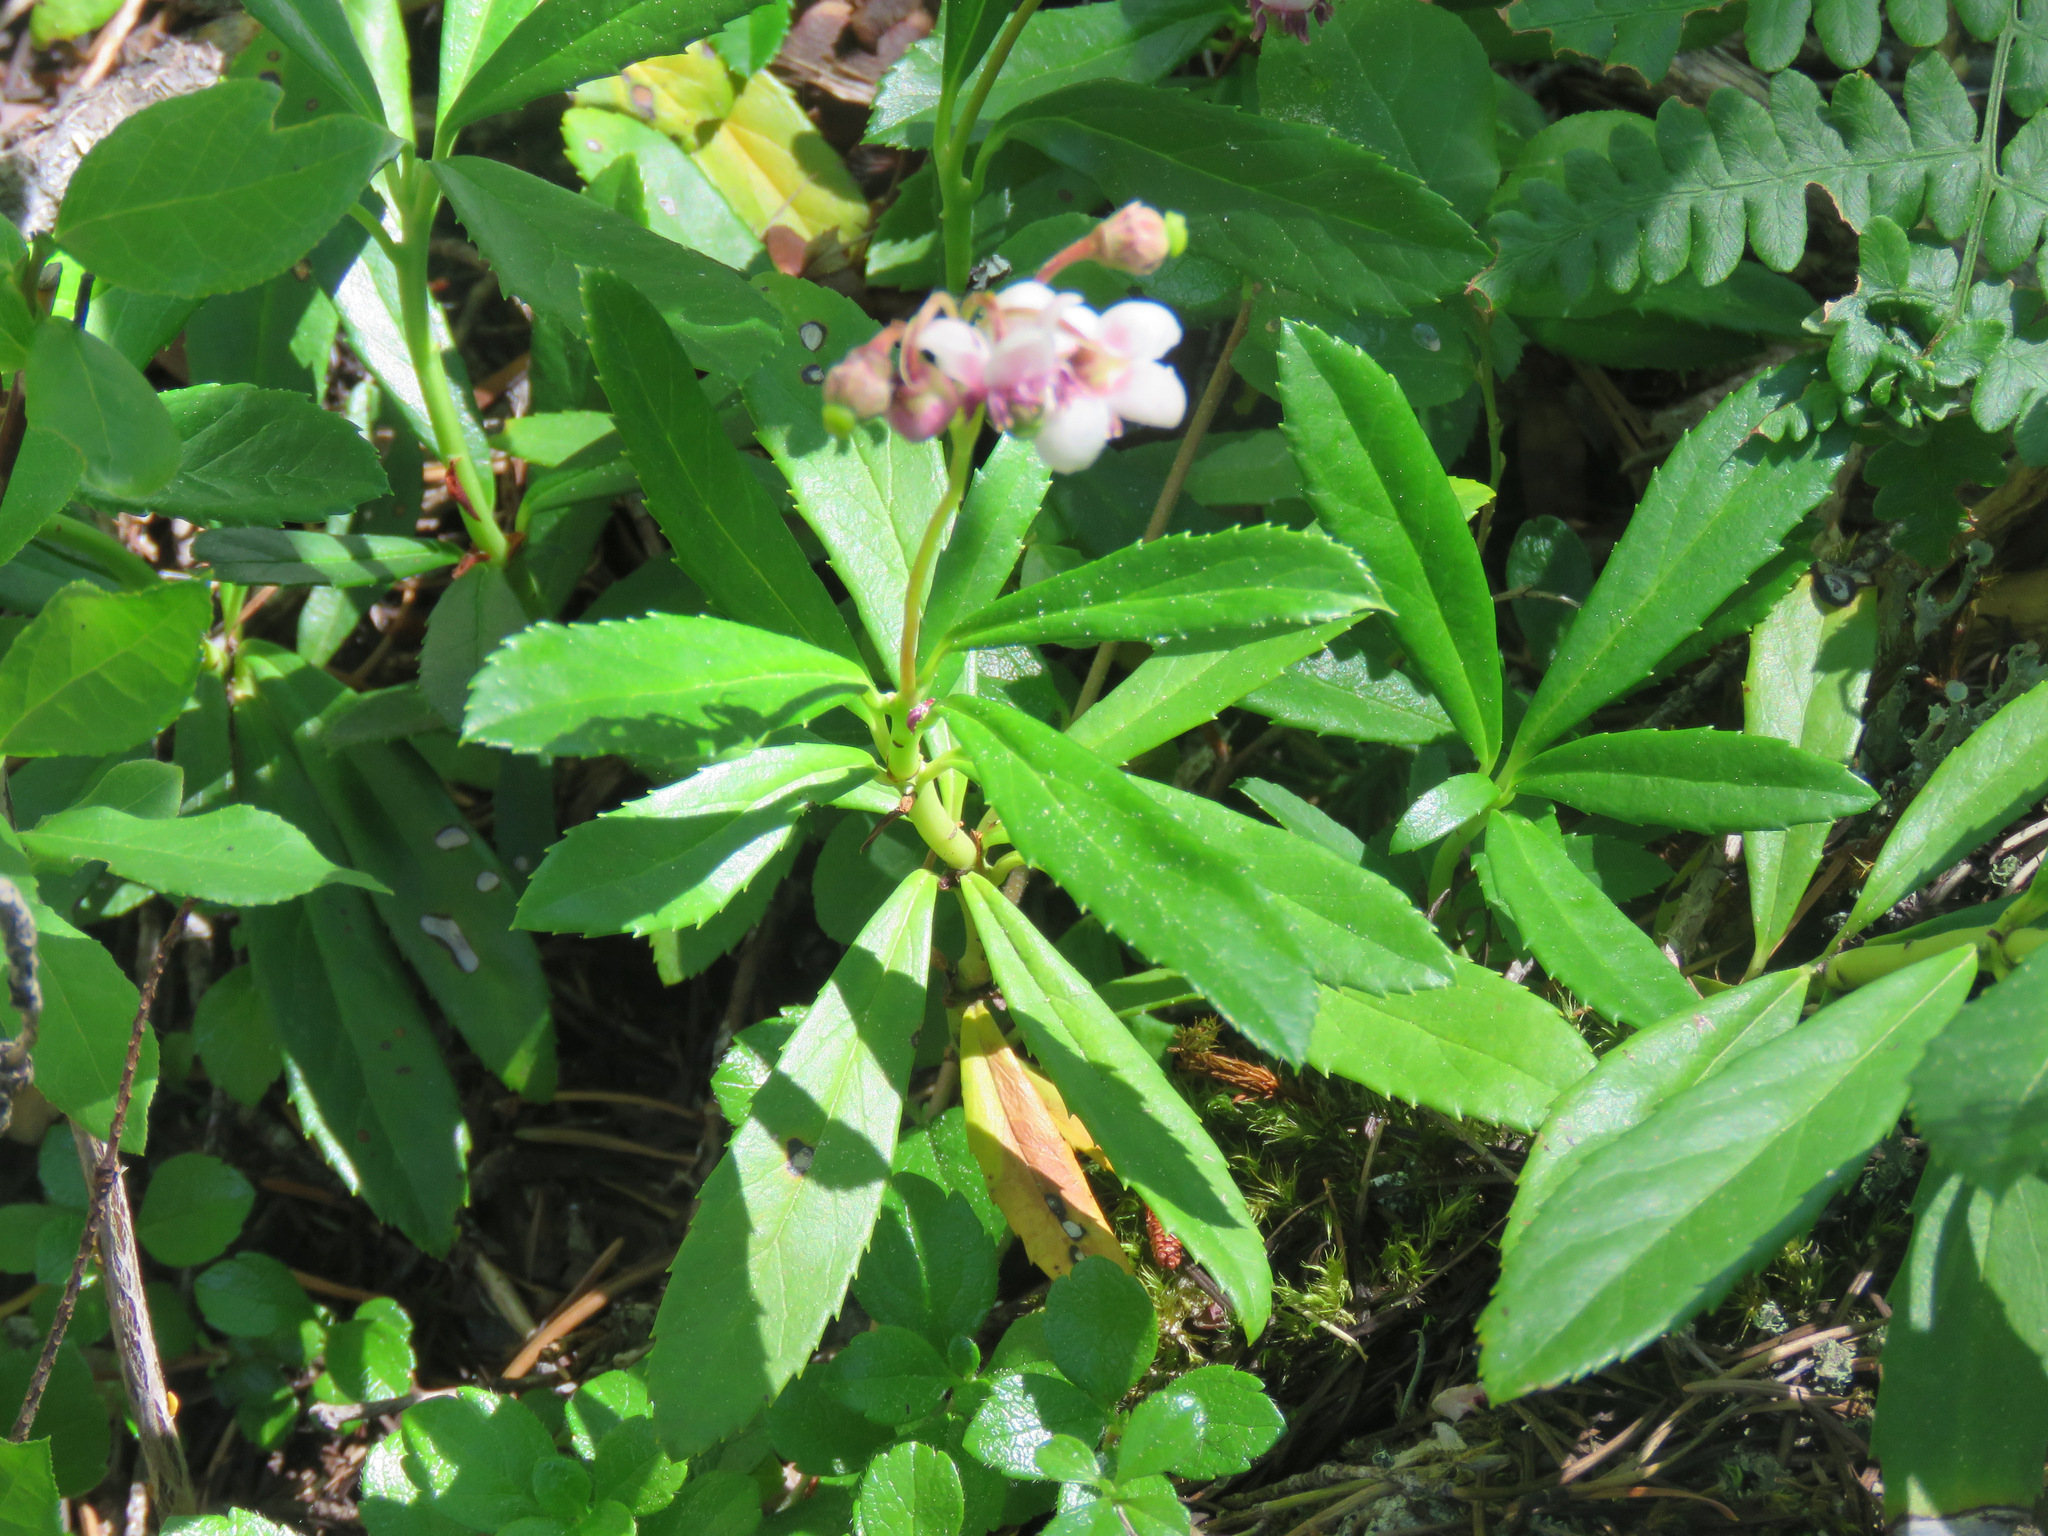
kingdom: Plantae
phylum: Tracheophyta
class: Magnoliopsida
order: Ericales
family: Ericaceae
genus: Chimaphila
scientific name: Chimaphila umbellata
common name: Pipsissewa
